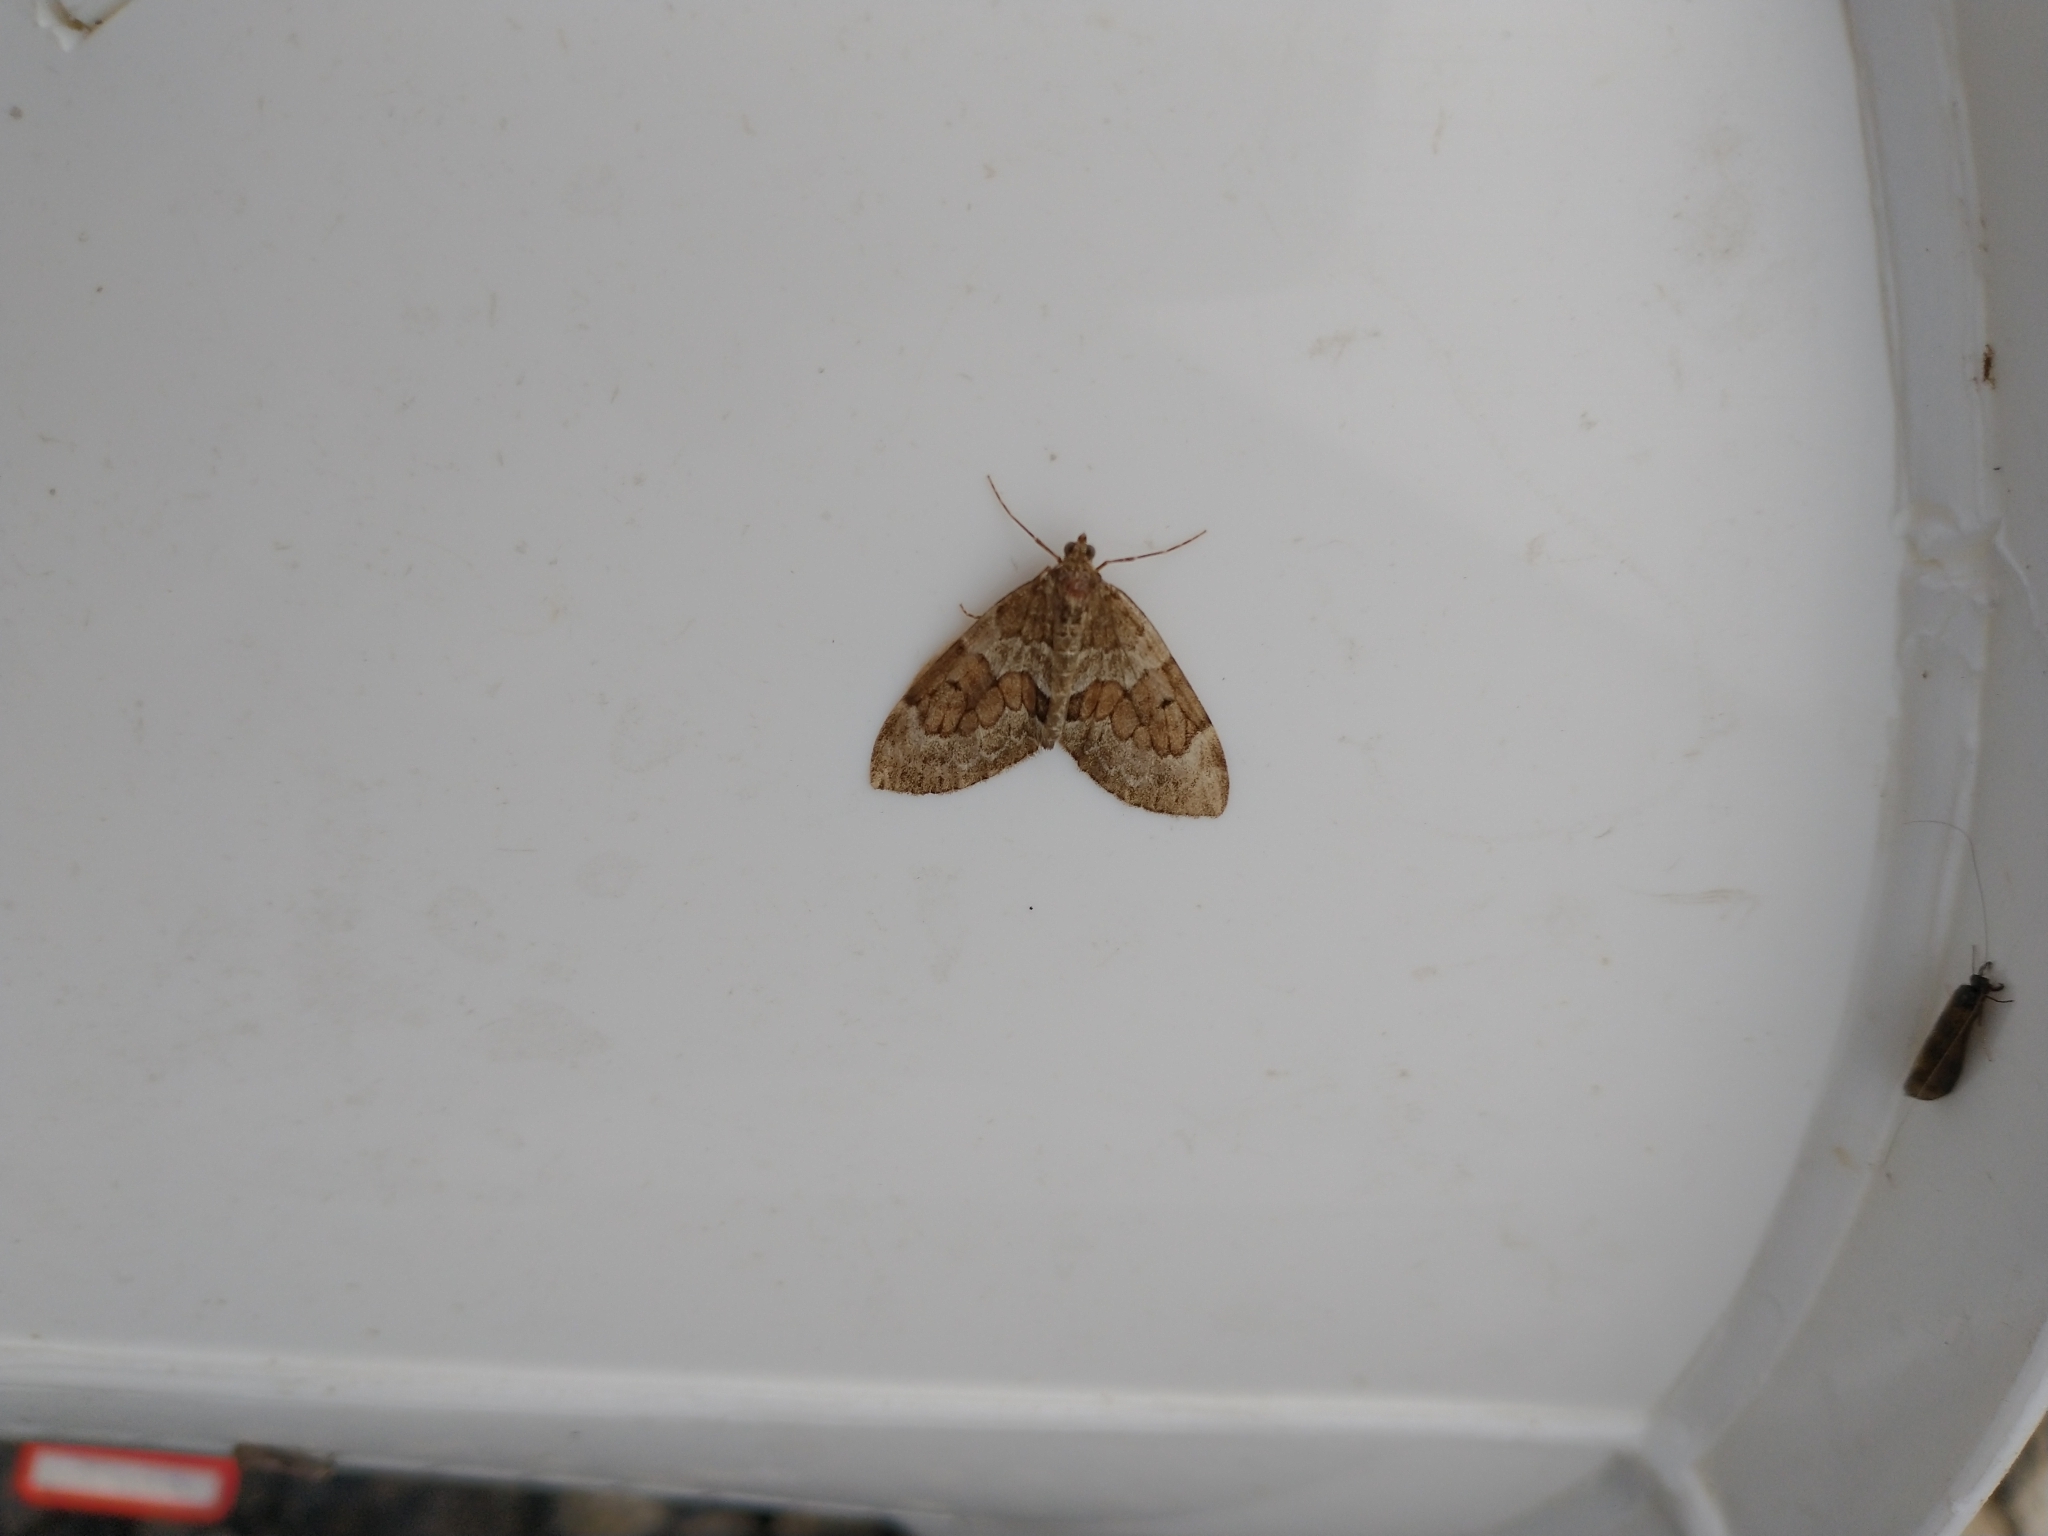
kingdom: Animalia
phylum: Arthropoda
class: Insecta
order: Lepidoptera
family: Geometridae
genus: Thera
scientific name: Thera obeliscata
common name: Grey pine carpet
